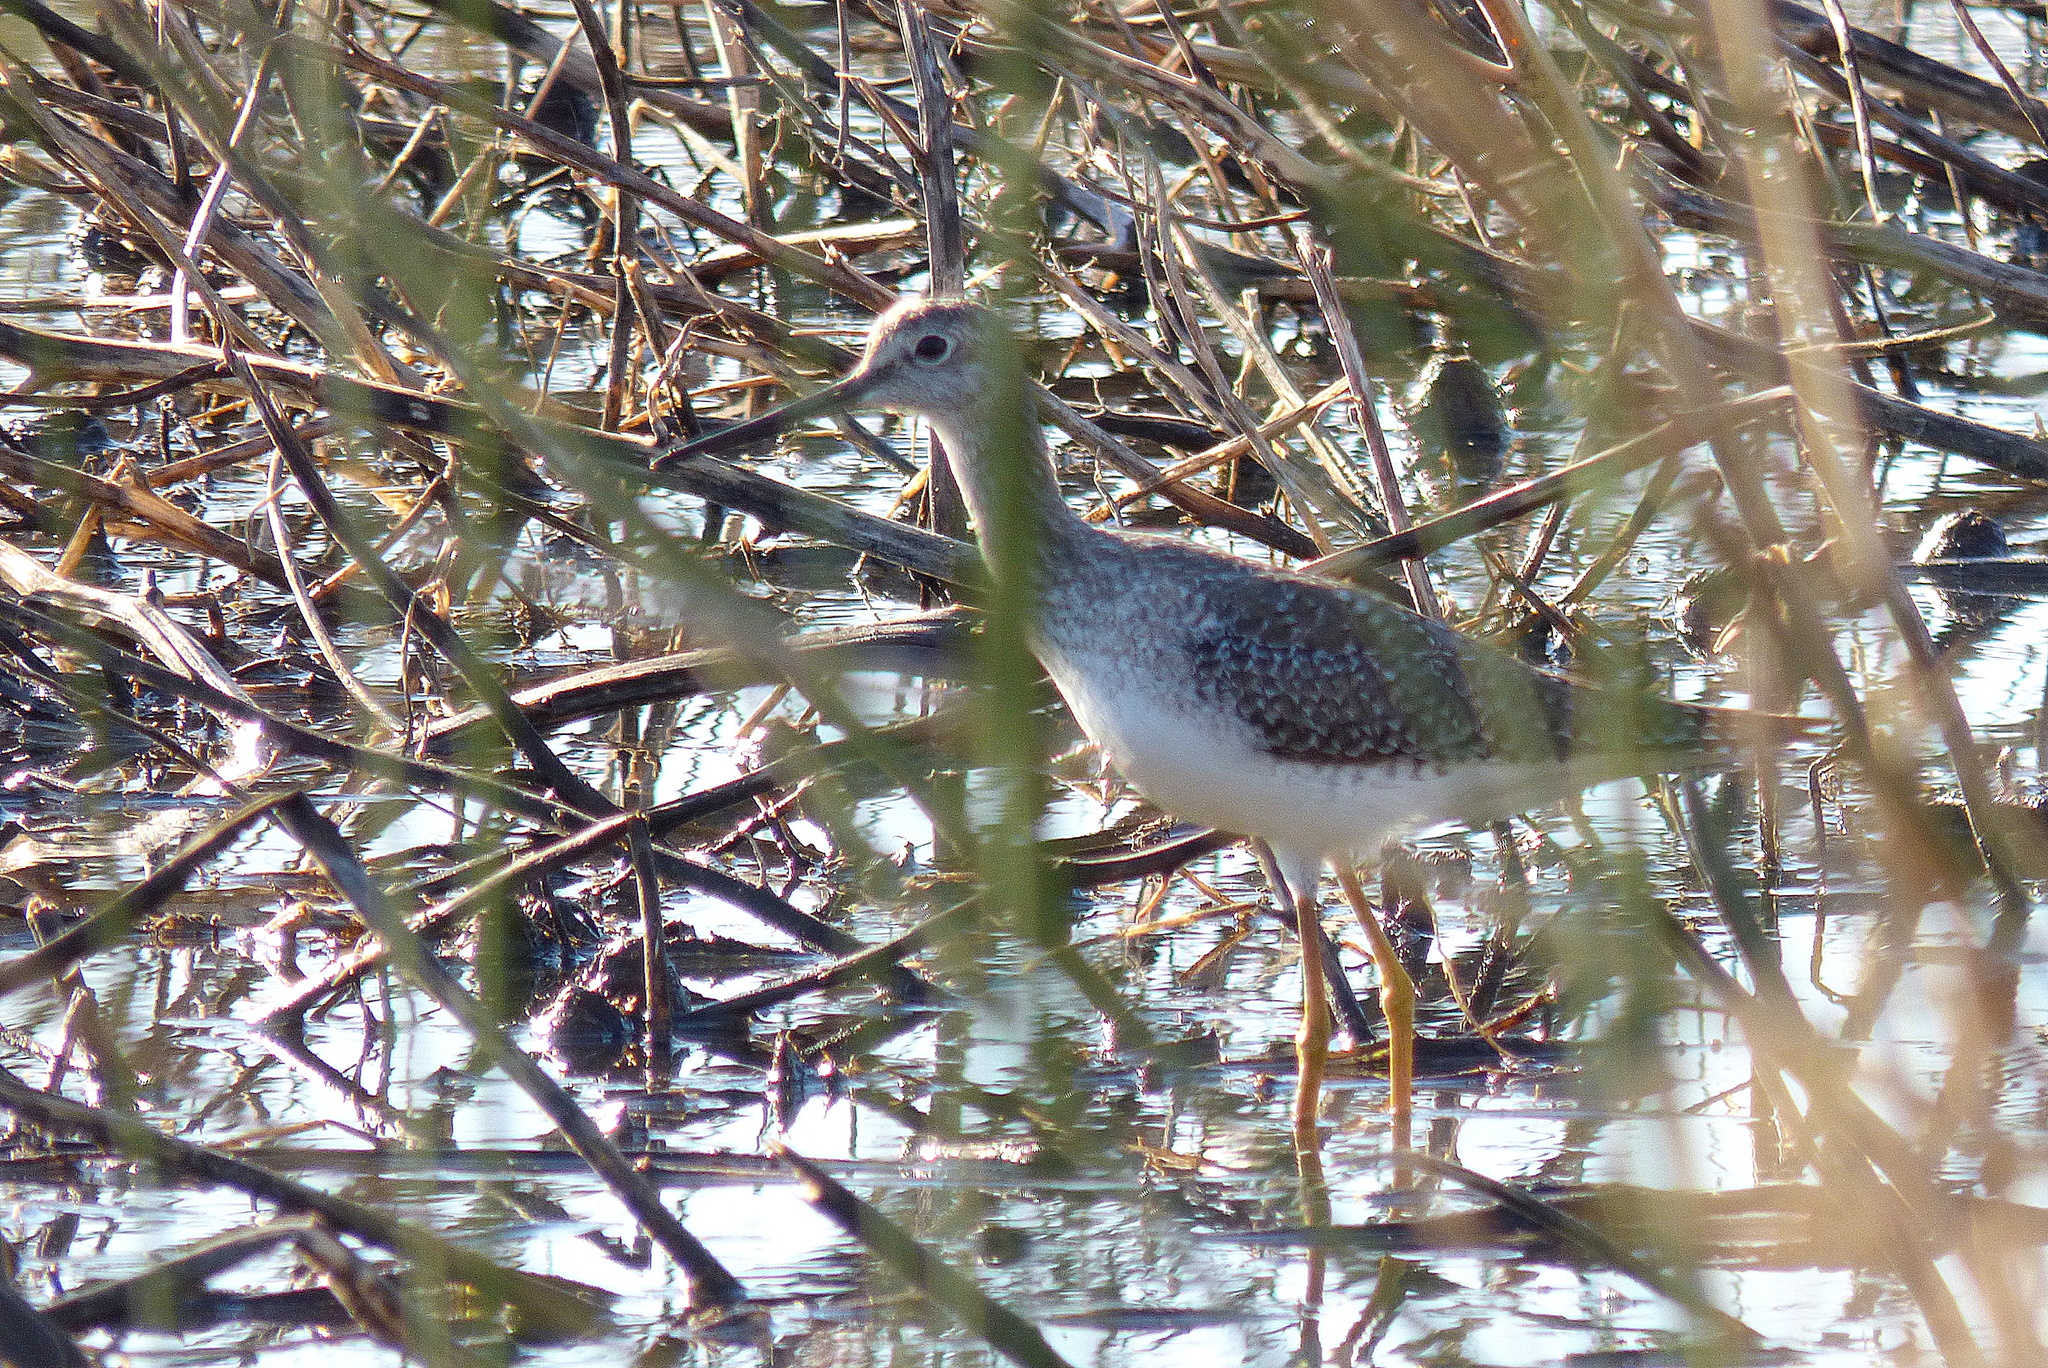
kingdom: Animalia
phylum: Chordata
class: Aves
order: Charadriiformes
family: Scolopacidae
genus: Tringa
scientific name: Tringa melanoleuca
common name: Greater yellowlegs
